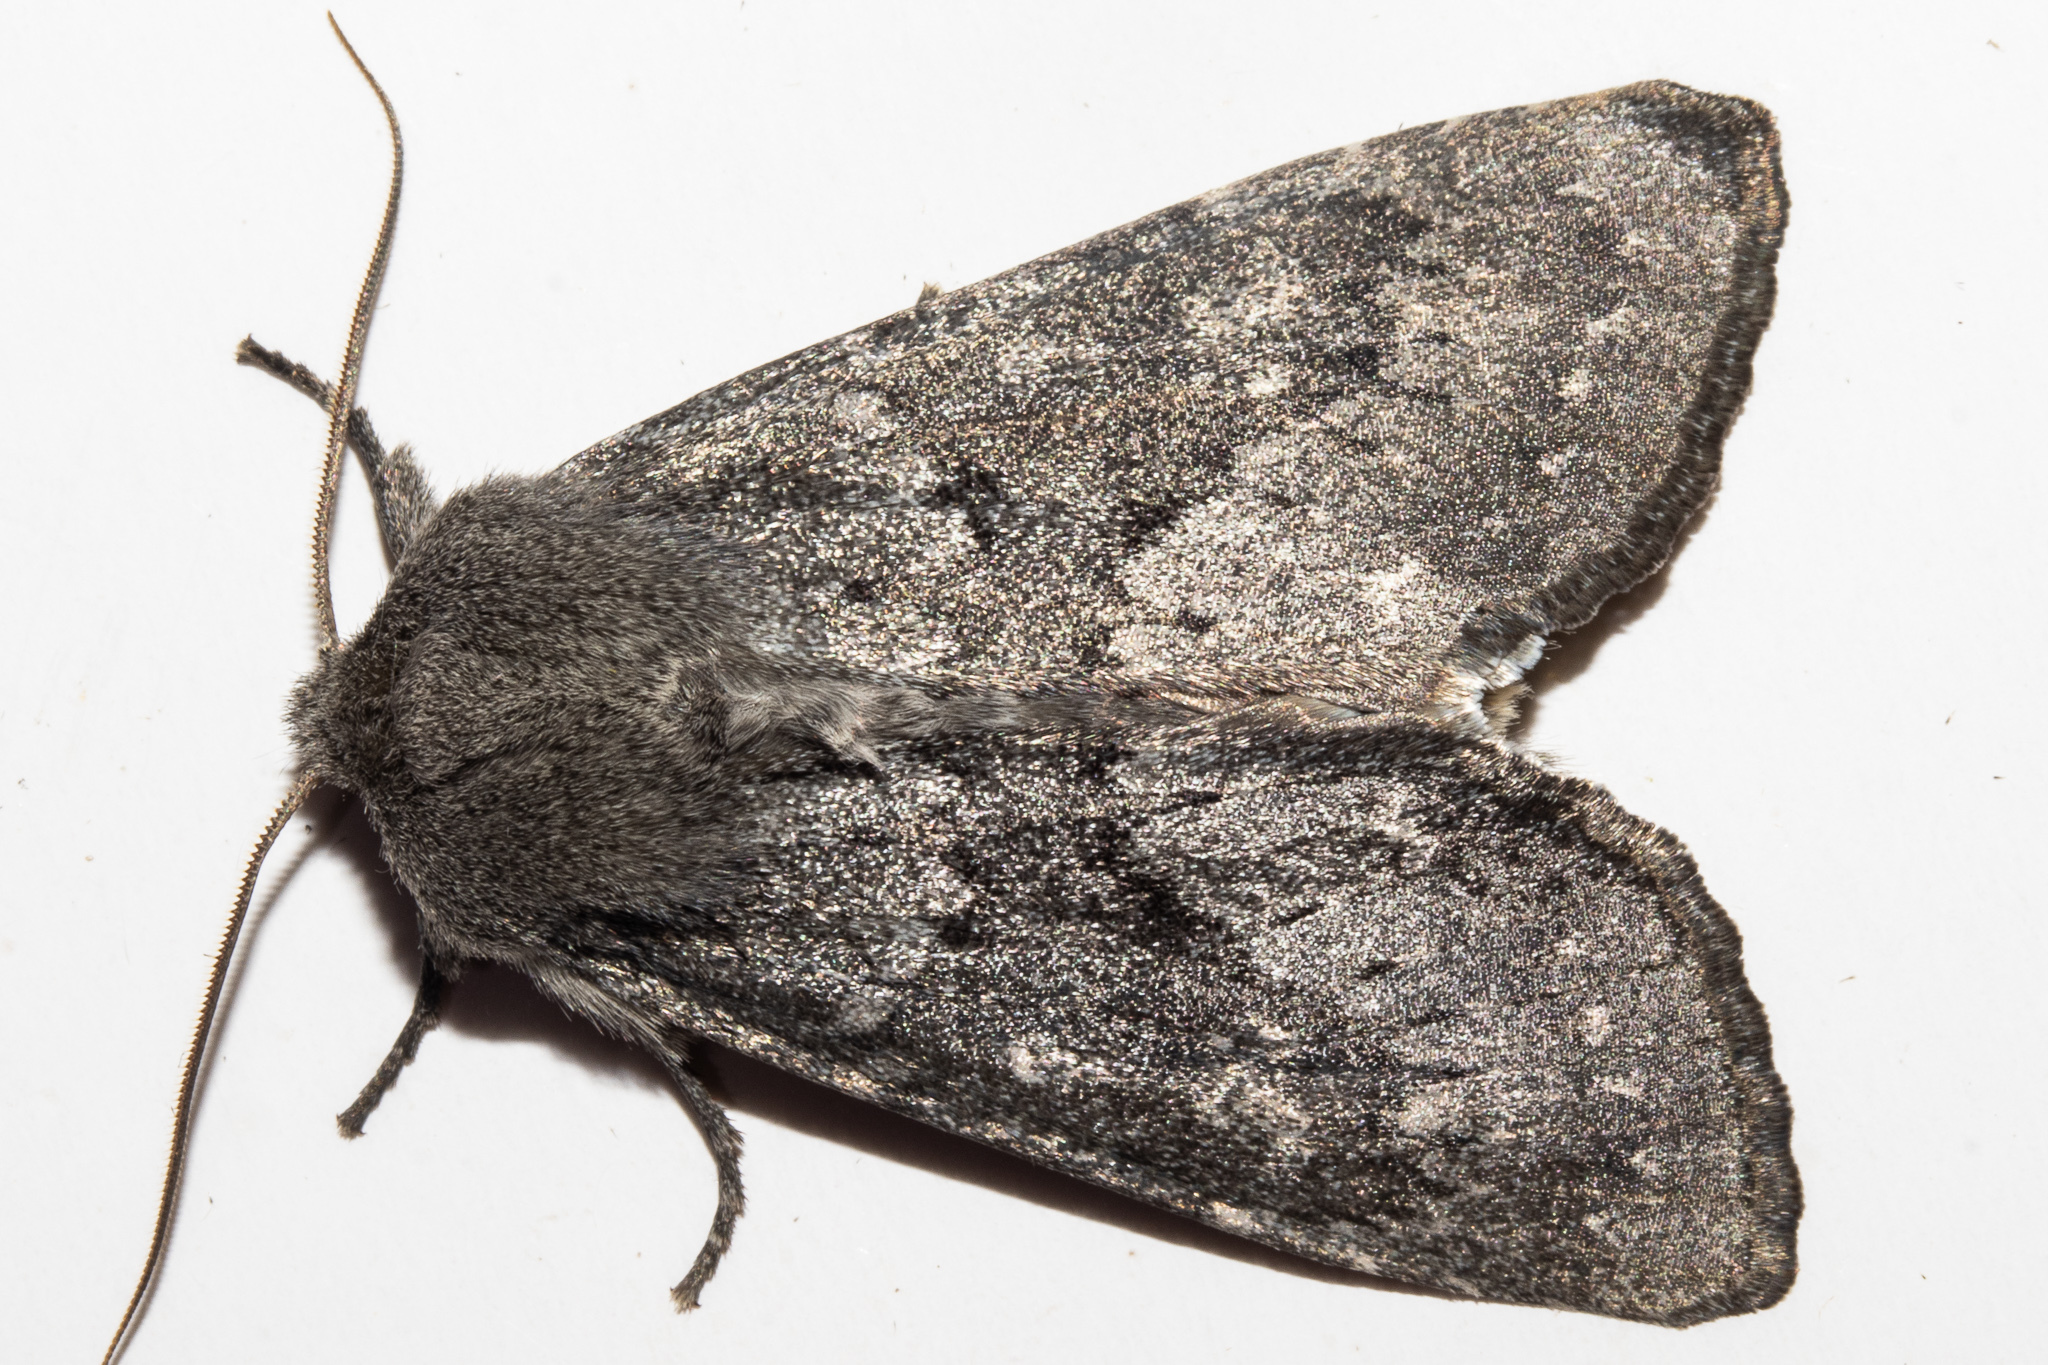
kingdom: Animalia
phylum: Arthropoda
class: Insecta
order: Lepidoptera
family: Noctuidae
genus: Ichneutica
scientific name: Ichneutica nullifera
